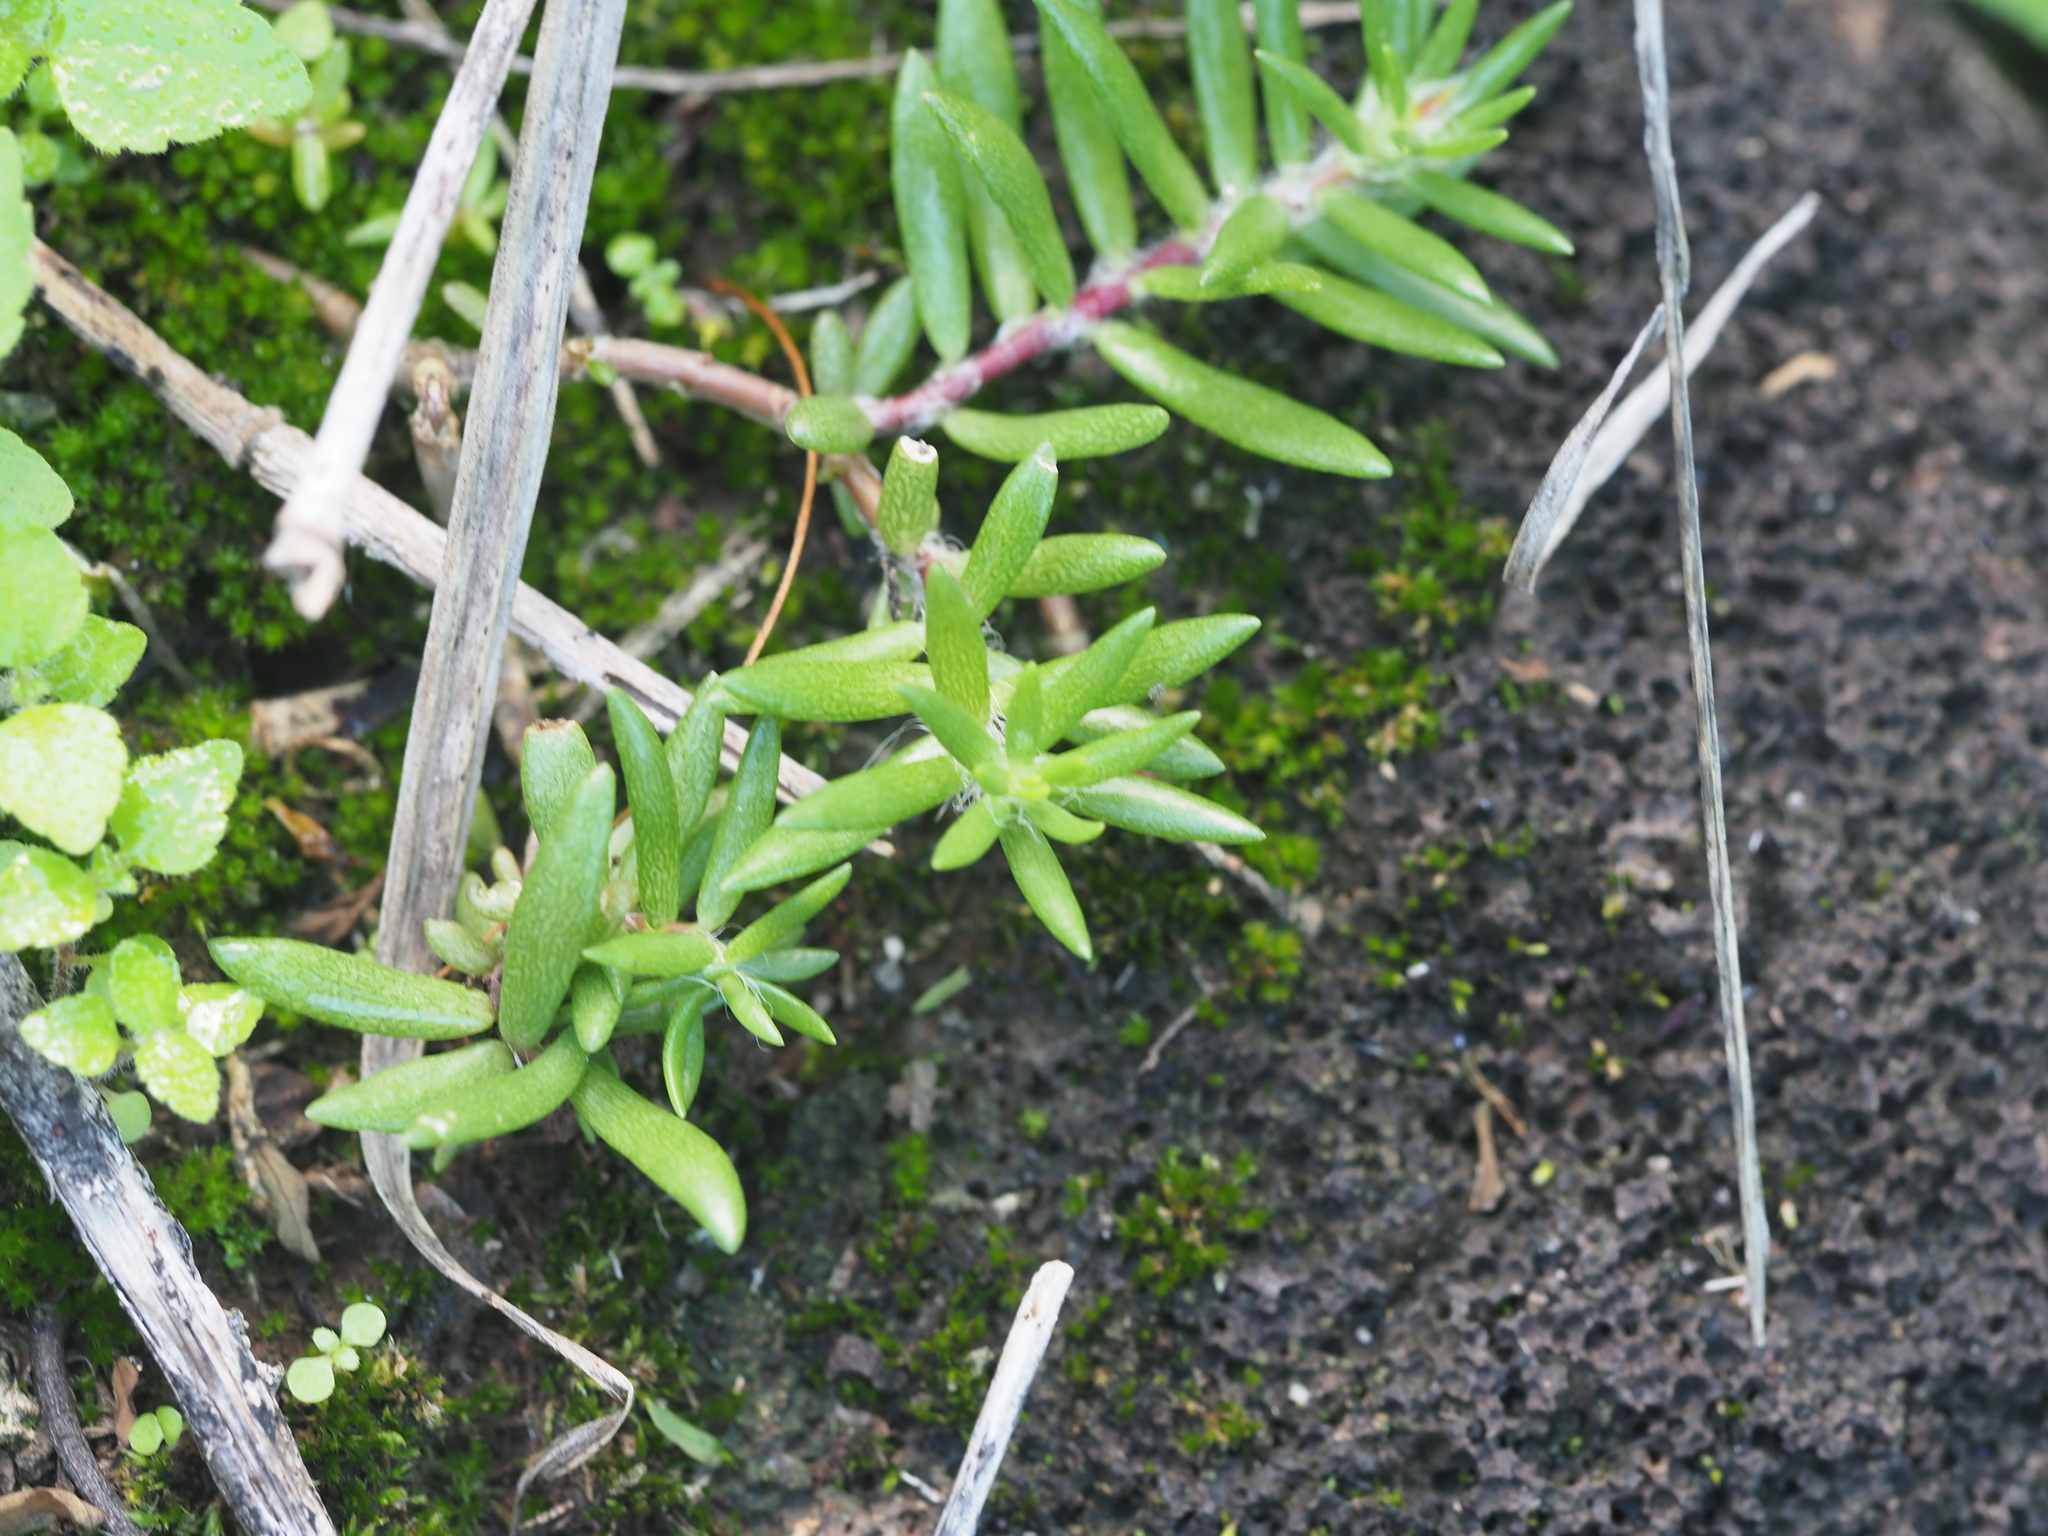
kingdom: Plantae
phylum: Tracheophyta
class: Magnoliopsida
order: Caryophyllales
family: Portulacaceae
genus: Portulaca
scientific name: Portulaca pilosa
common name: Kiss me quick
